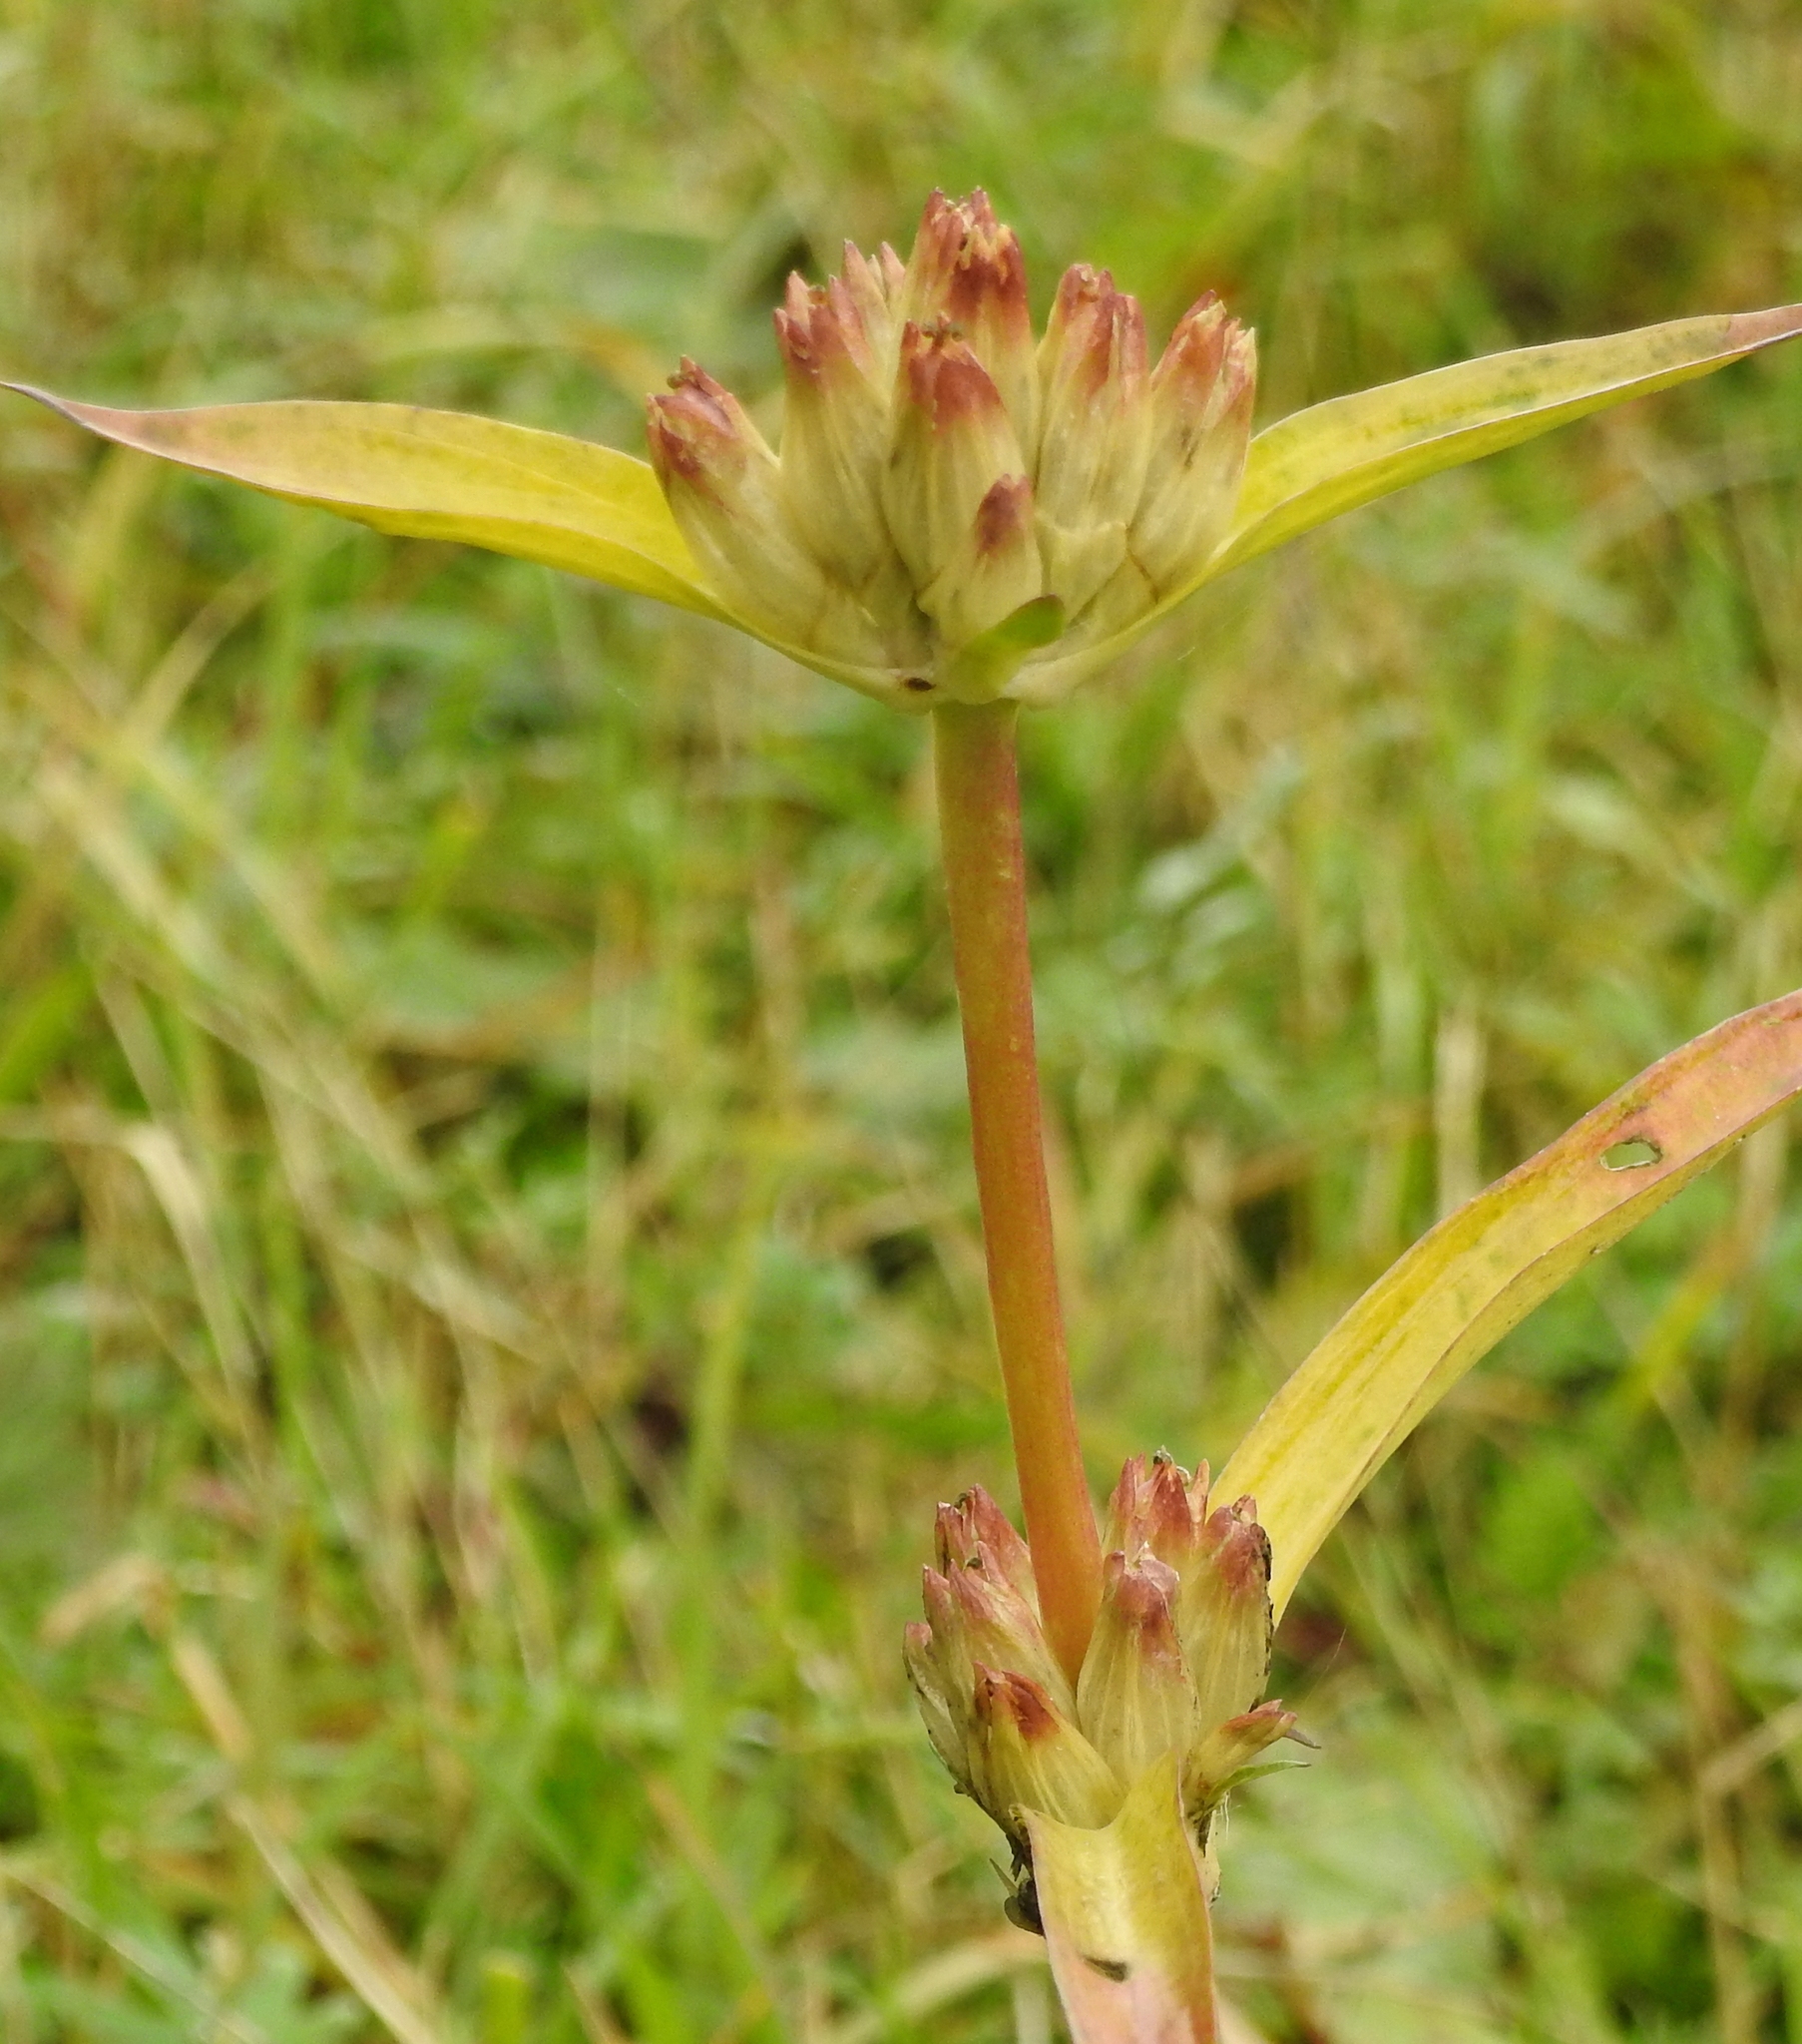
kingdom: Plantae
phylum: Tracheophyta
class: Magnoliopsida
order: Gentianales
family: Gentianaceae
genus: Gentiana
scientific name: Gentiana macrophylla
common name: Large-leaf gentian
